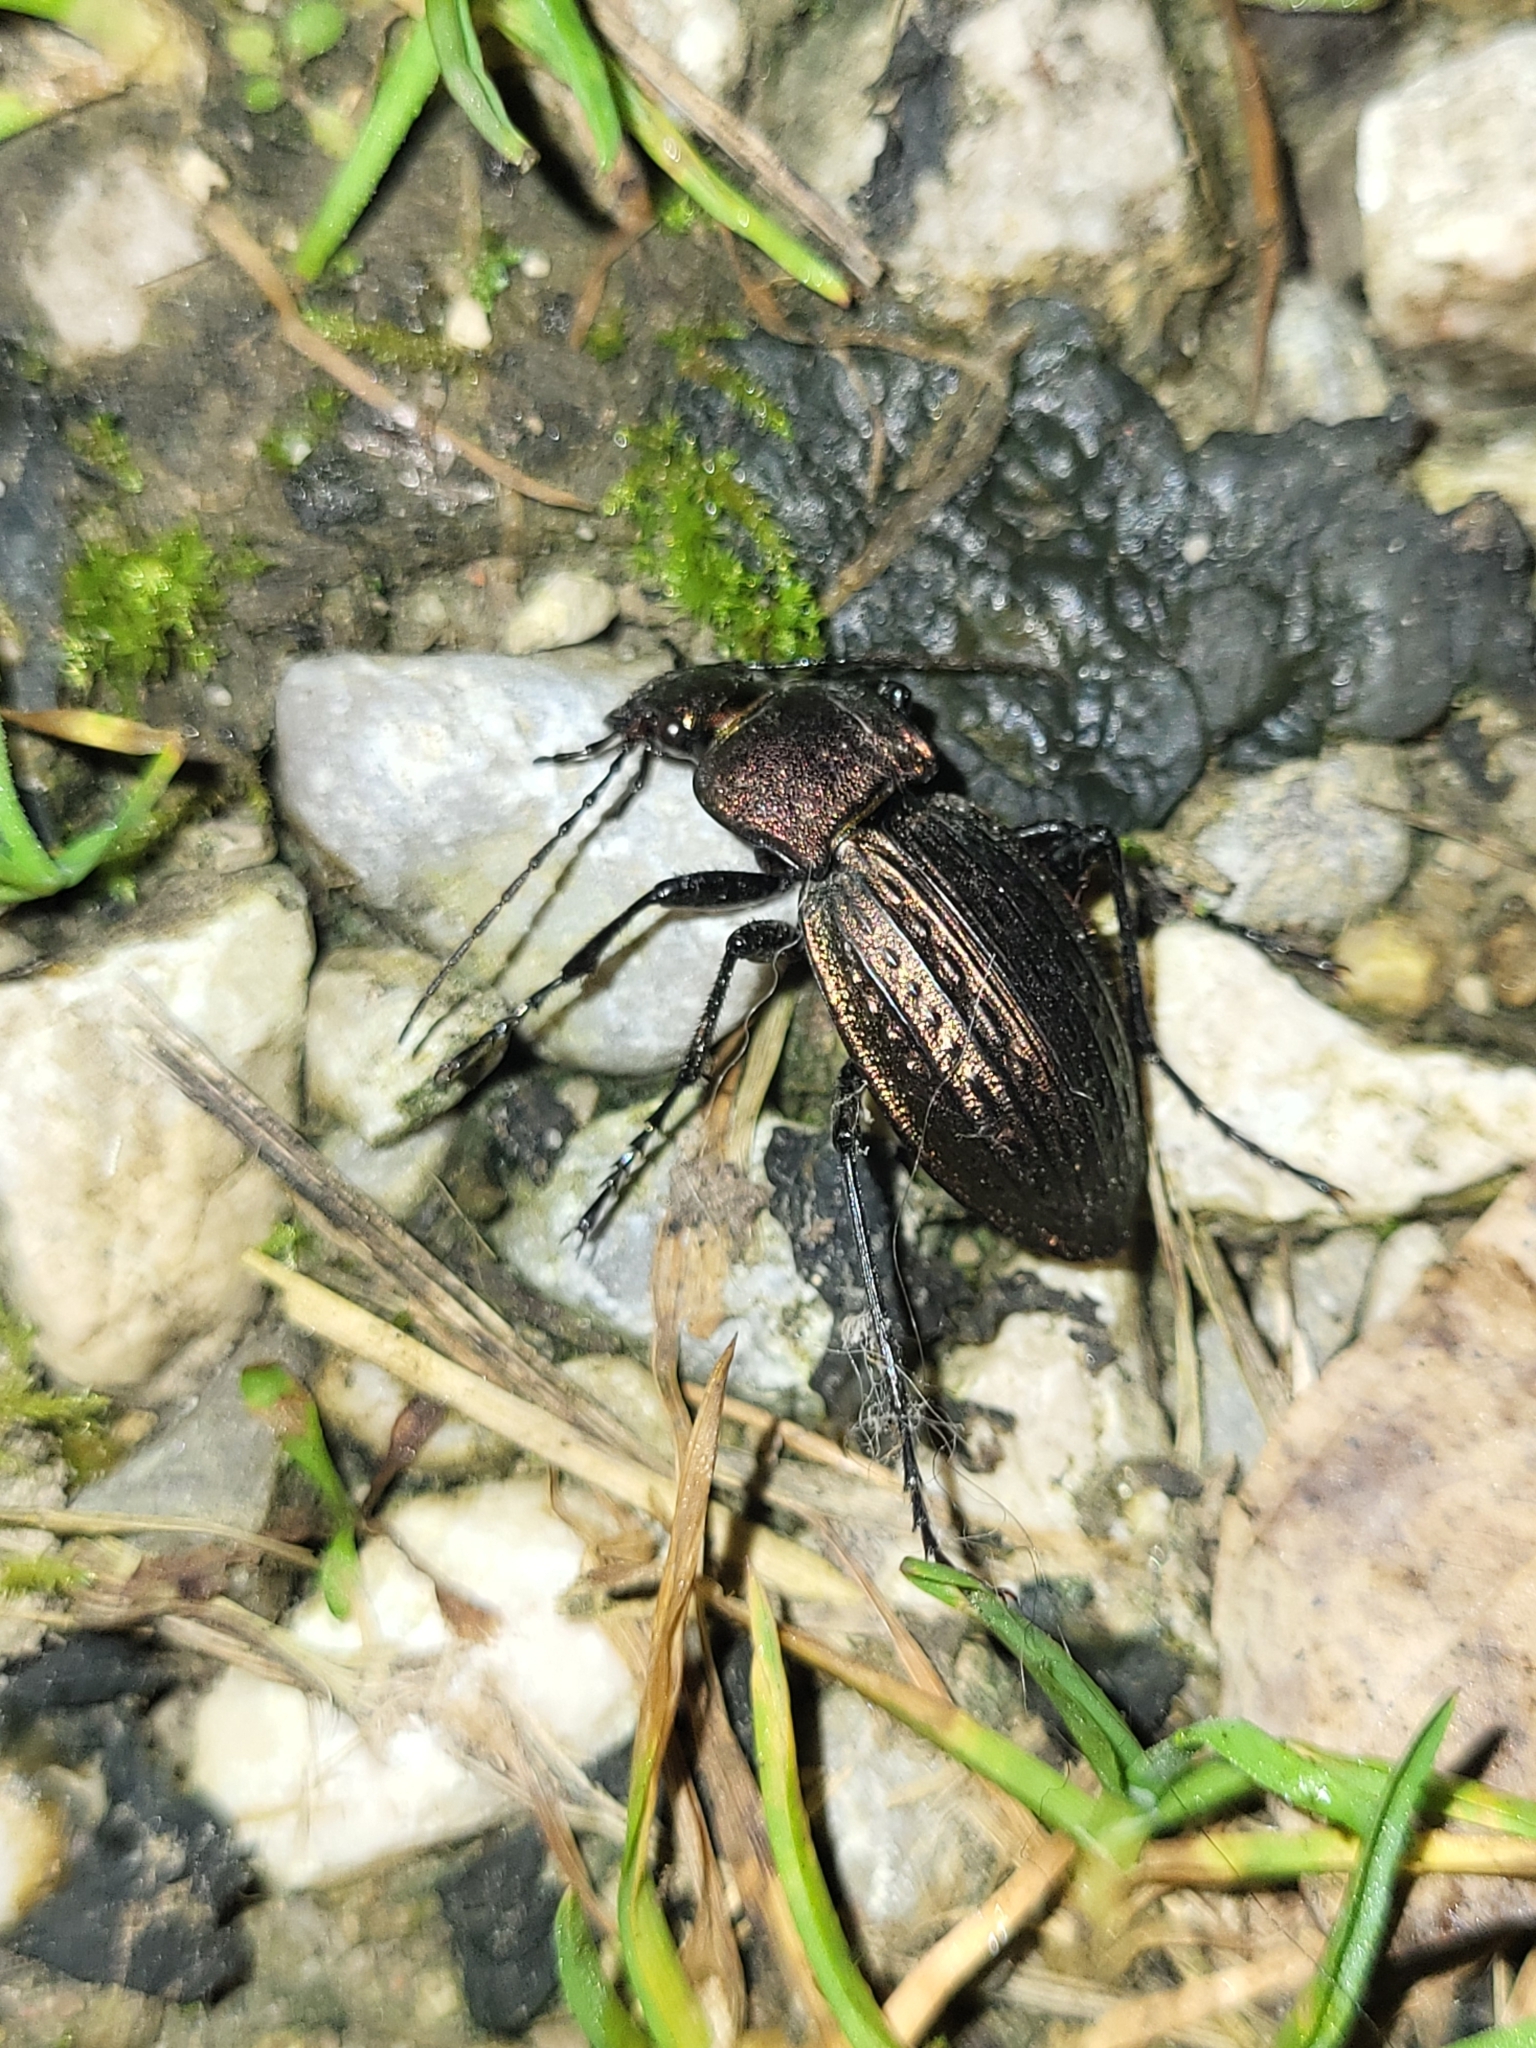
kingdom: Animalia
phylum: Arthropoda
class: Insecta
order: Coleoptera
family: Carabidae
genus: Carabus
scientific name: Carabus cancellatus
